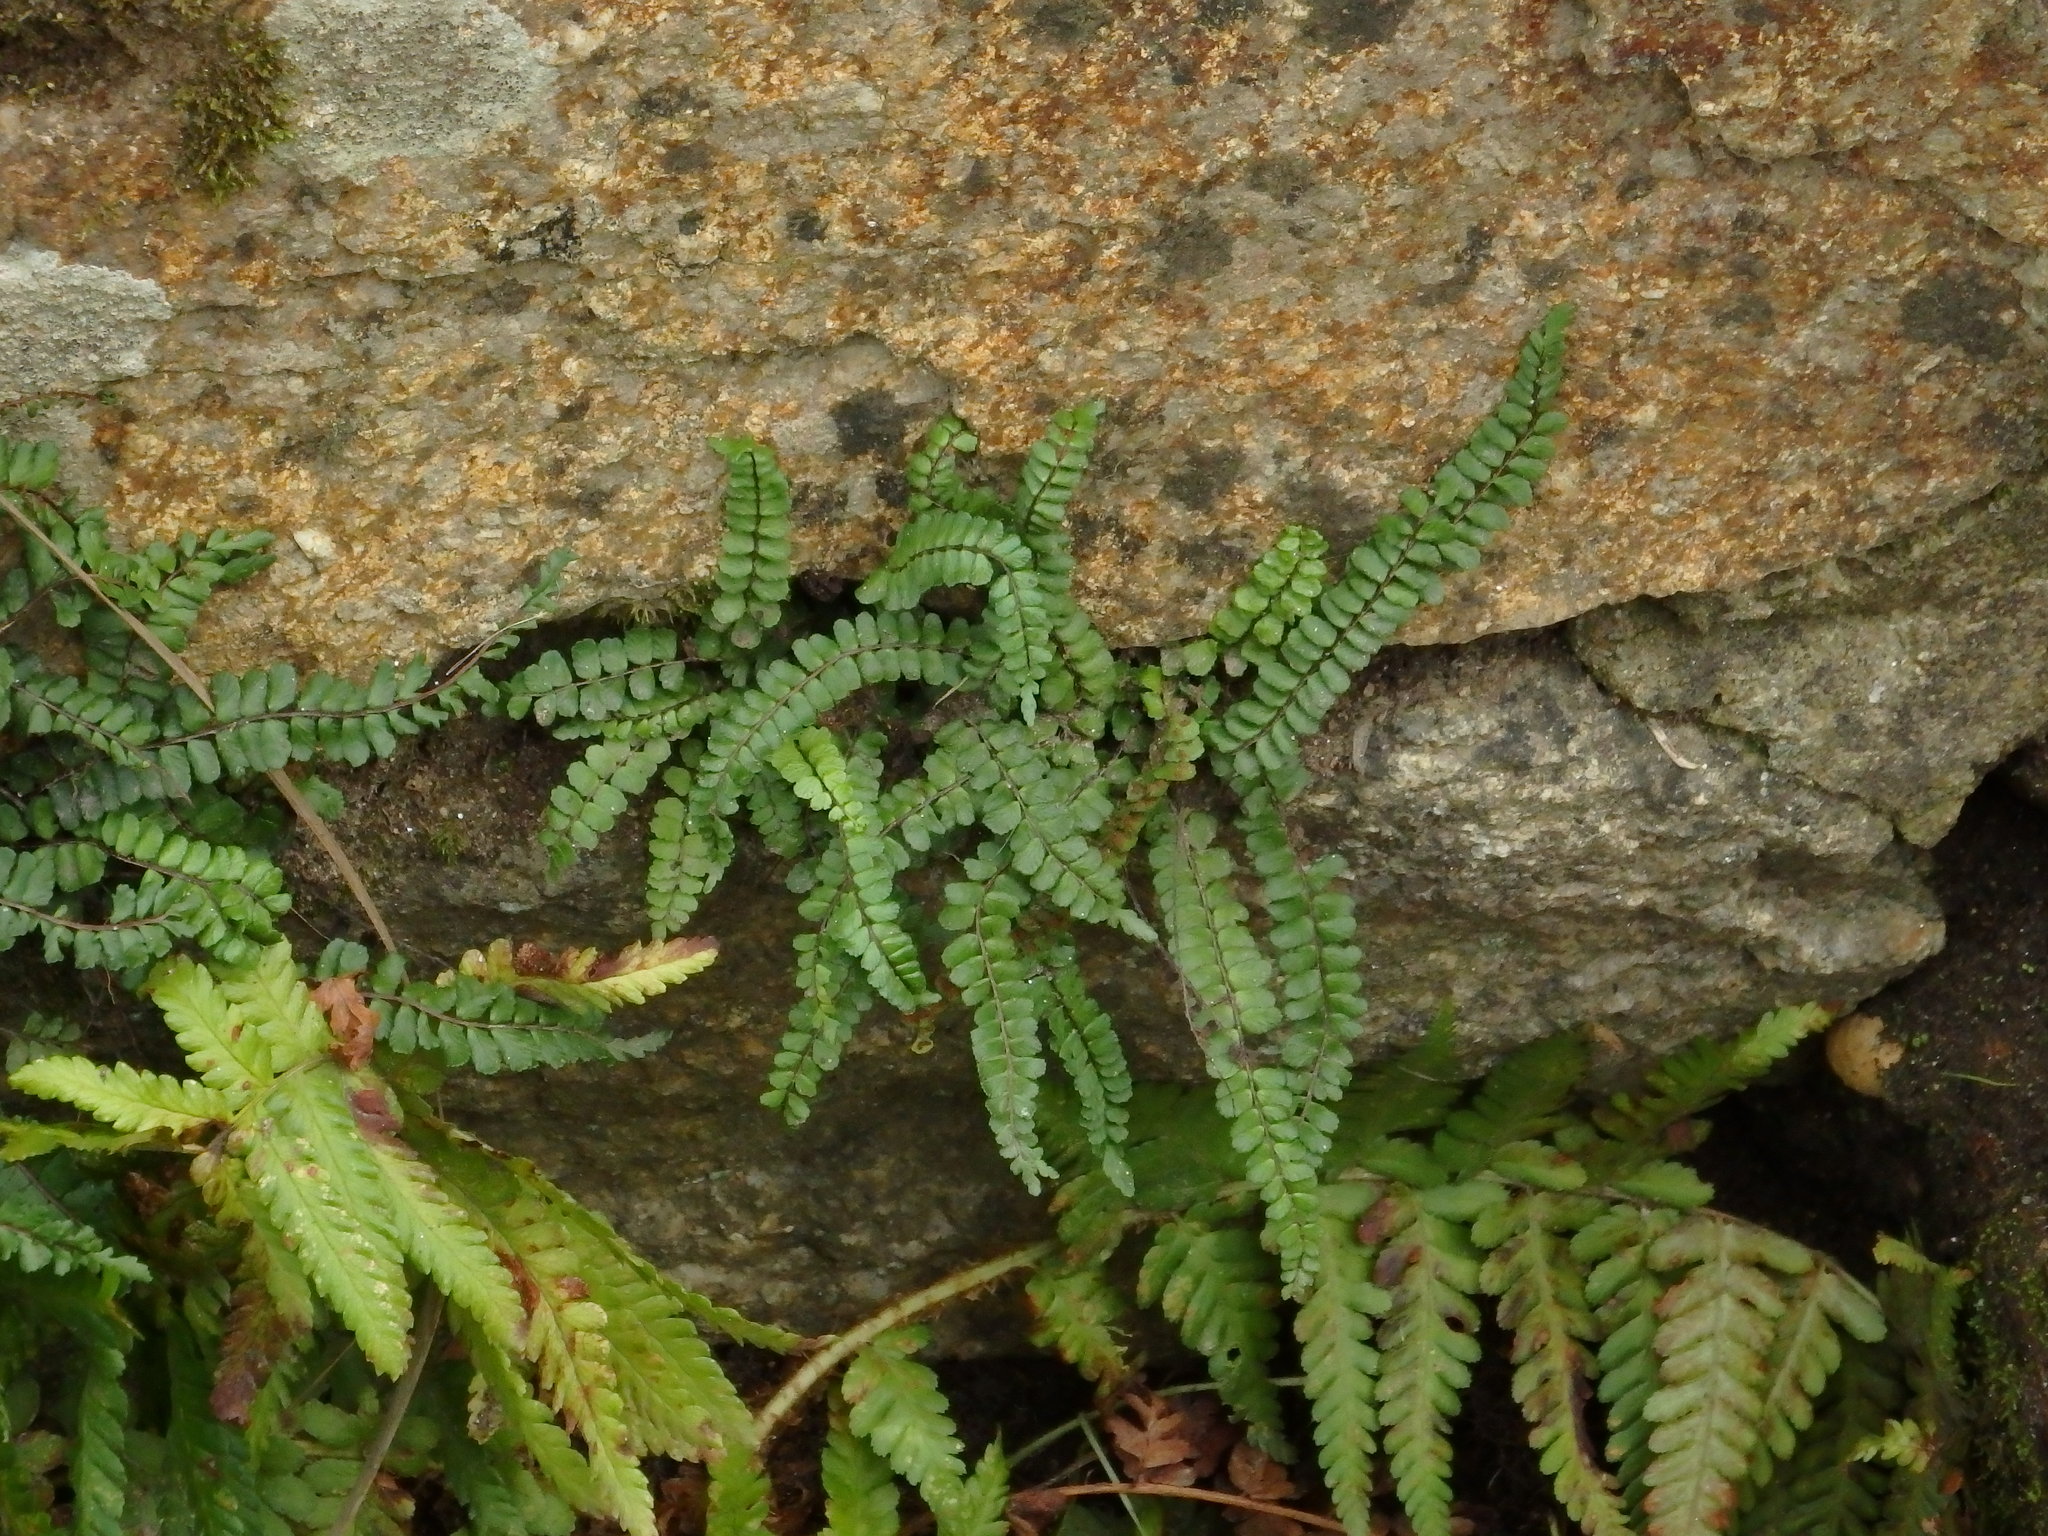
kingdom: Plantae
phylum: Tracheophyta
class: Polypodiopsida
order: Polypodiales
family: Aspleniaceae
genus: Asplenium
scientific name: Asplenium trichomanes
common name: Maidenhair spleenwort
